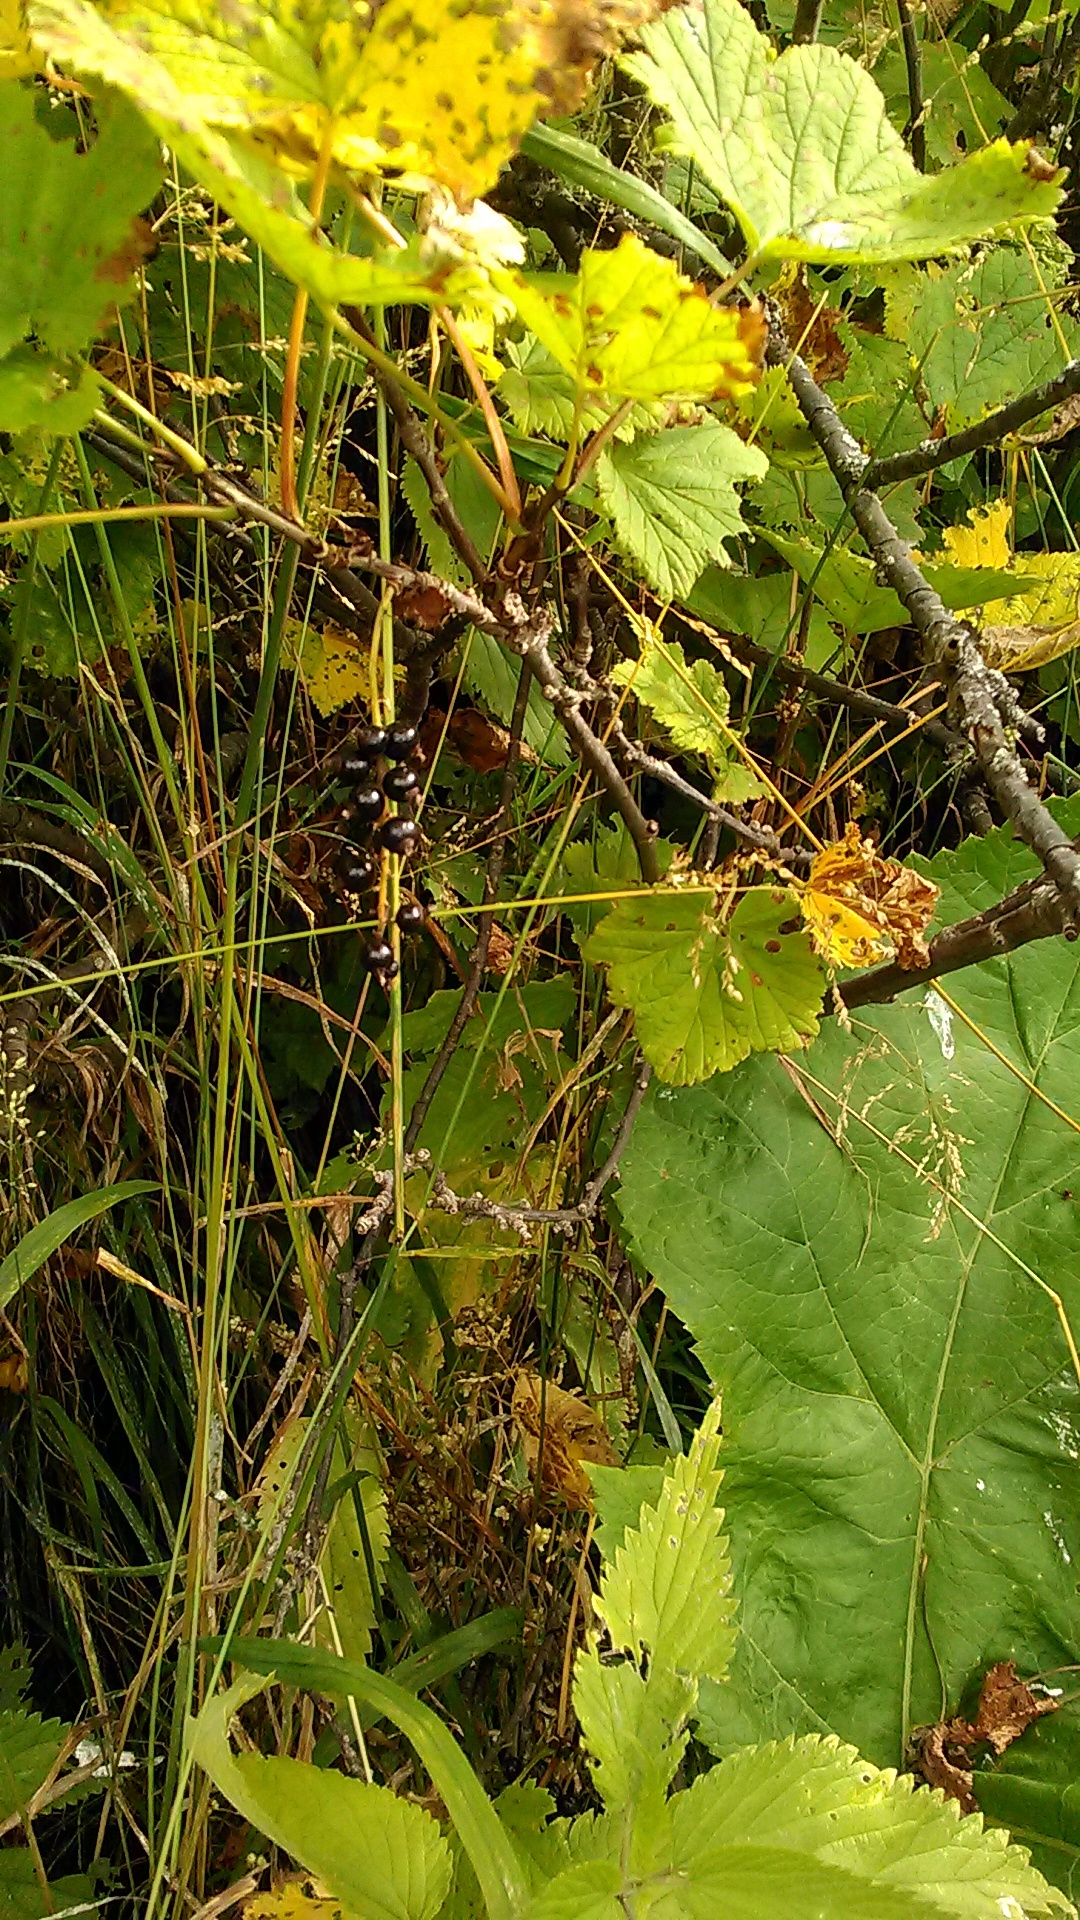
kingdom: Plantae
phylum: Tracheophyta
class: Magnoliopsida
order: Saxifragales
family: Grossulariaceae
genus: Ribes
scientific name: Ribes biebersteinii
